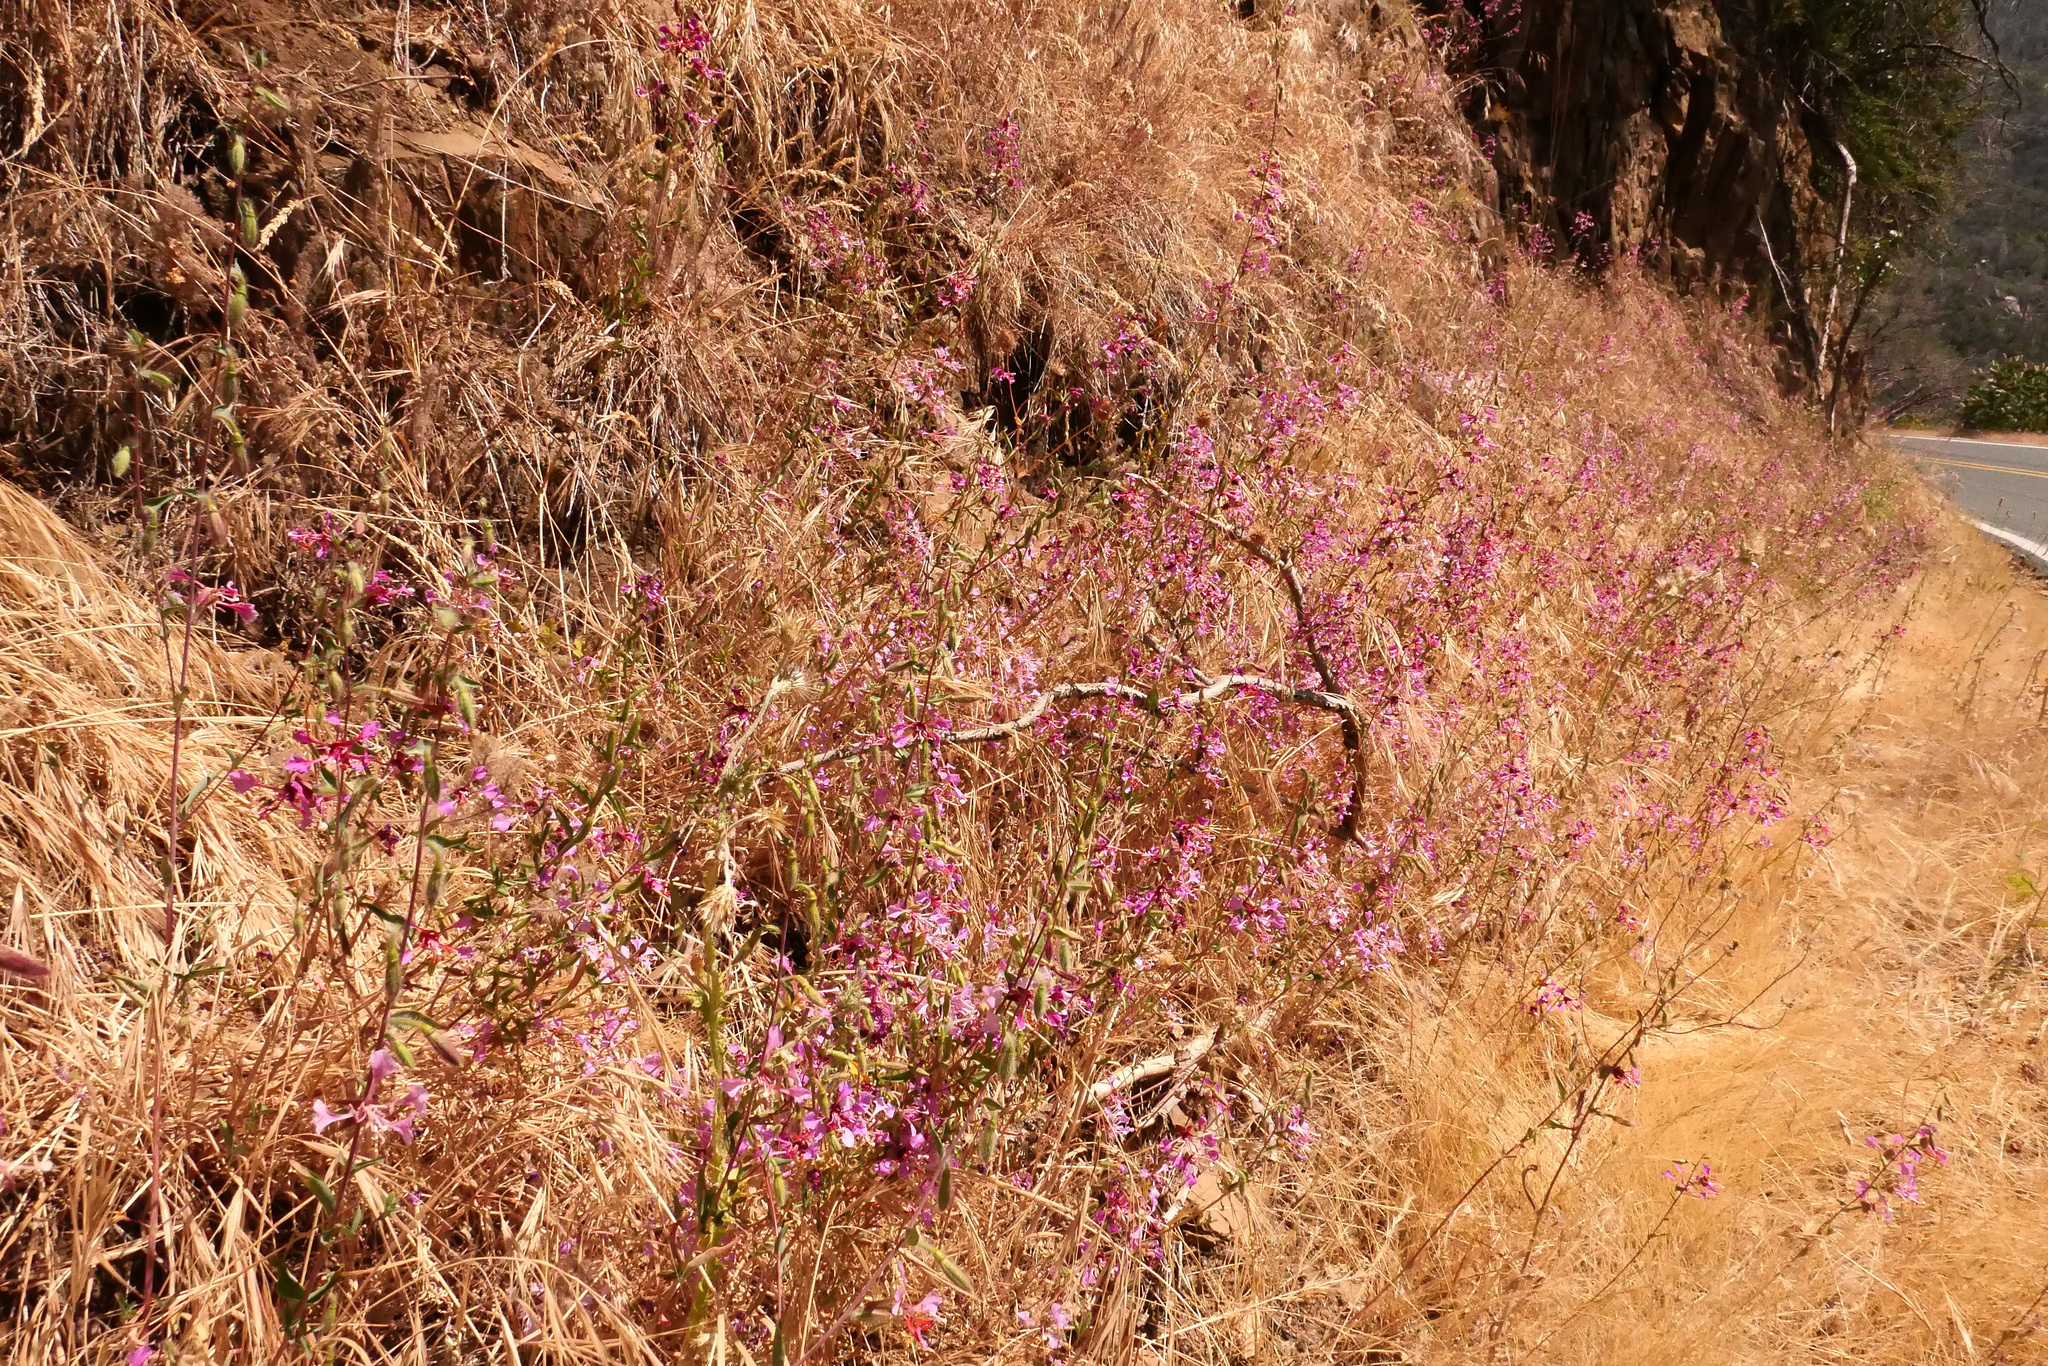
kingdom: Plantae
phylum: Tracheophyta
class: Magnoliopsida
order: Myrtales
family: Onagraceae
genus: Clarkia
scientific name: Clarkia unguiculata
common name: Clarkia
